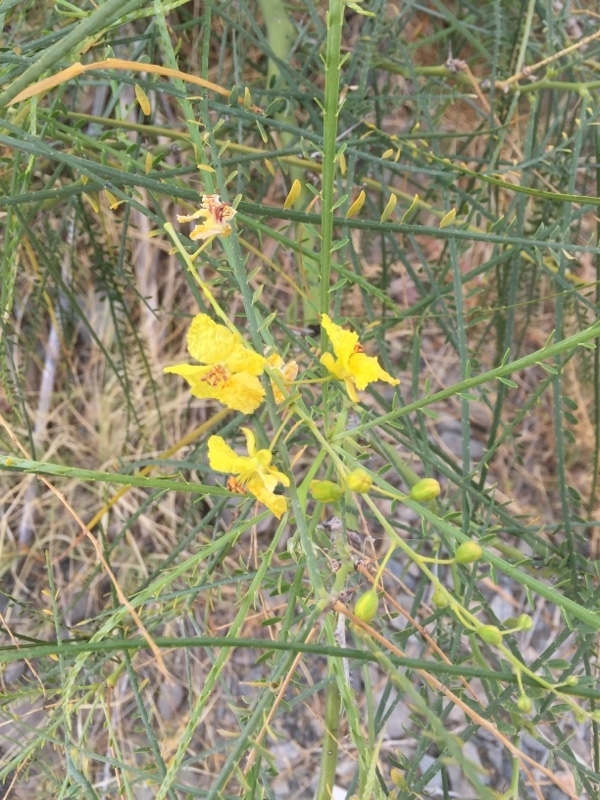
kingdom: Plantae
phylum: Tracheophyta
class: Magnoliopsida
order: Fabales
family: Fabaceae
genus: Parkinsonia
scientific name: Parkinsonia aculeata
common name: Jerusalem thorn
